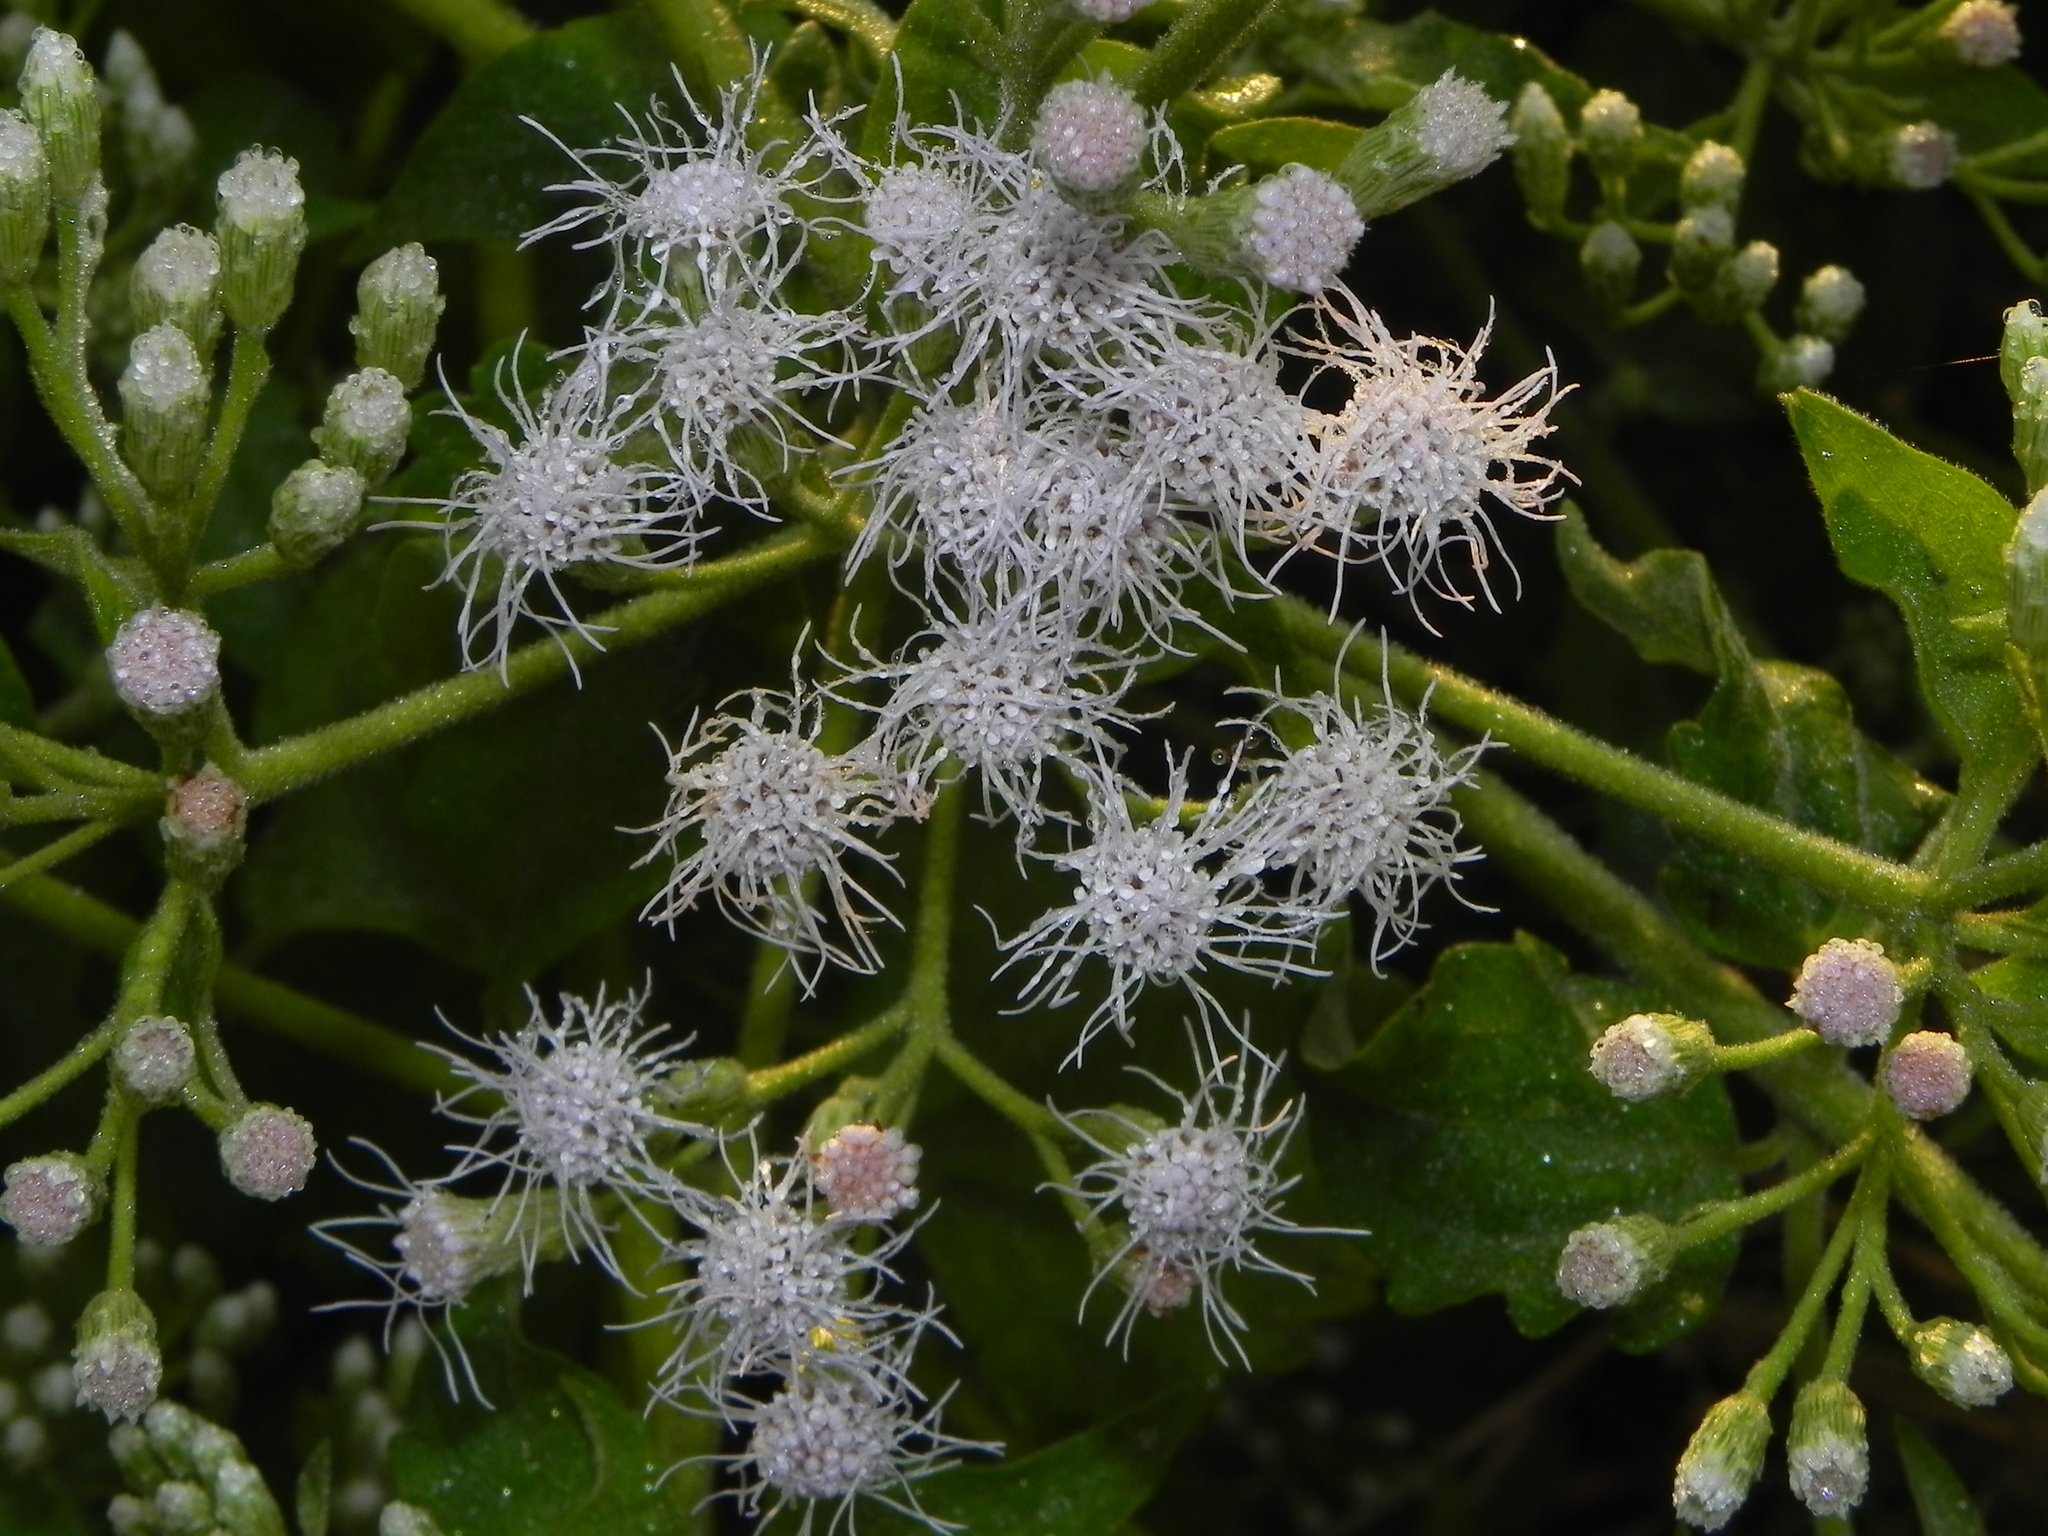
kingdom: Plantae
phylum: Tracheophyta
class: Magnoliopsida
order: Asterales
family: Asteraceae
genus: Chromolaena
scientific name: Chromolaena odorata
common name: Siamweed
